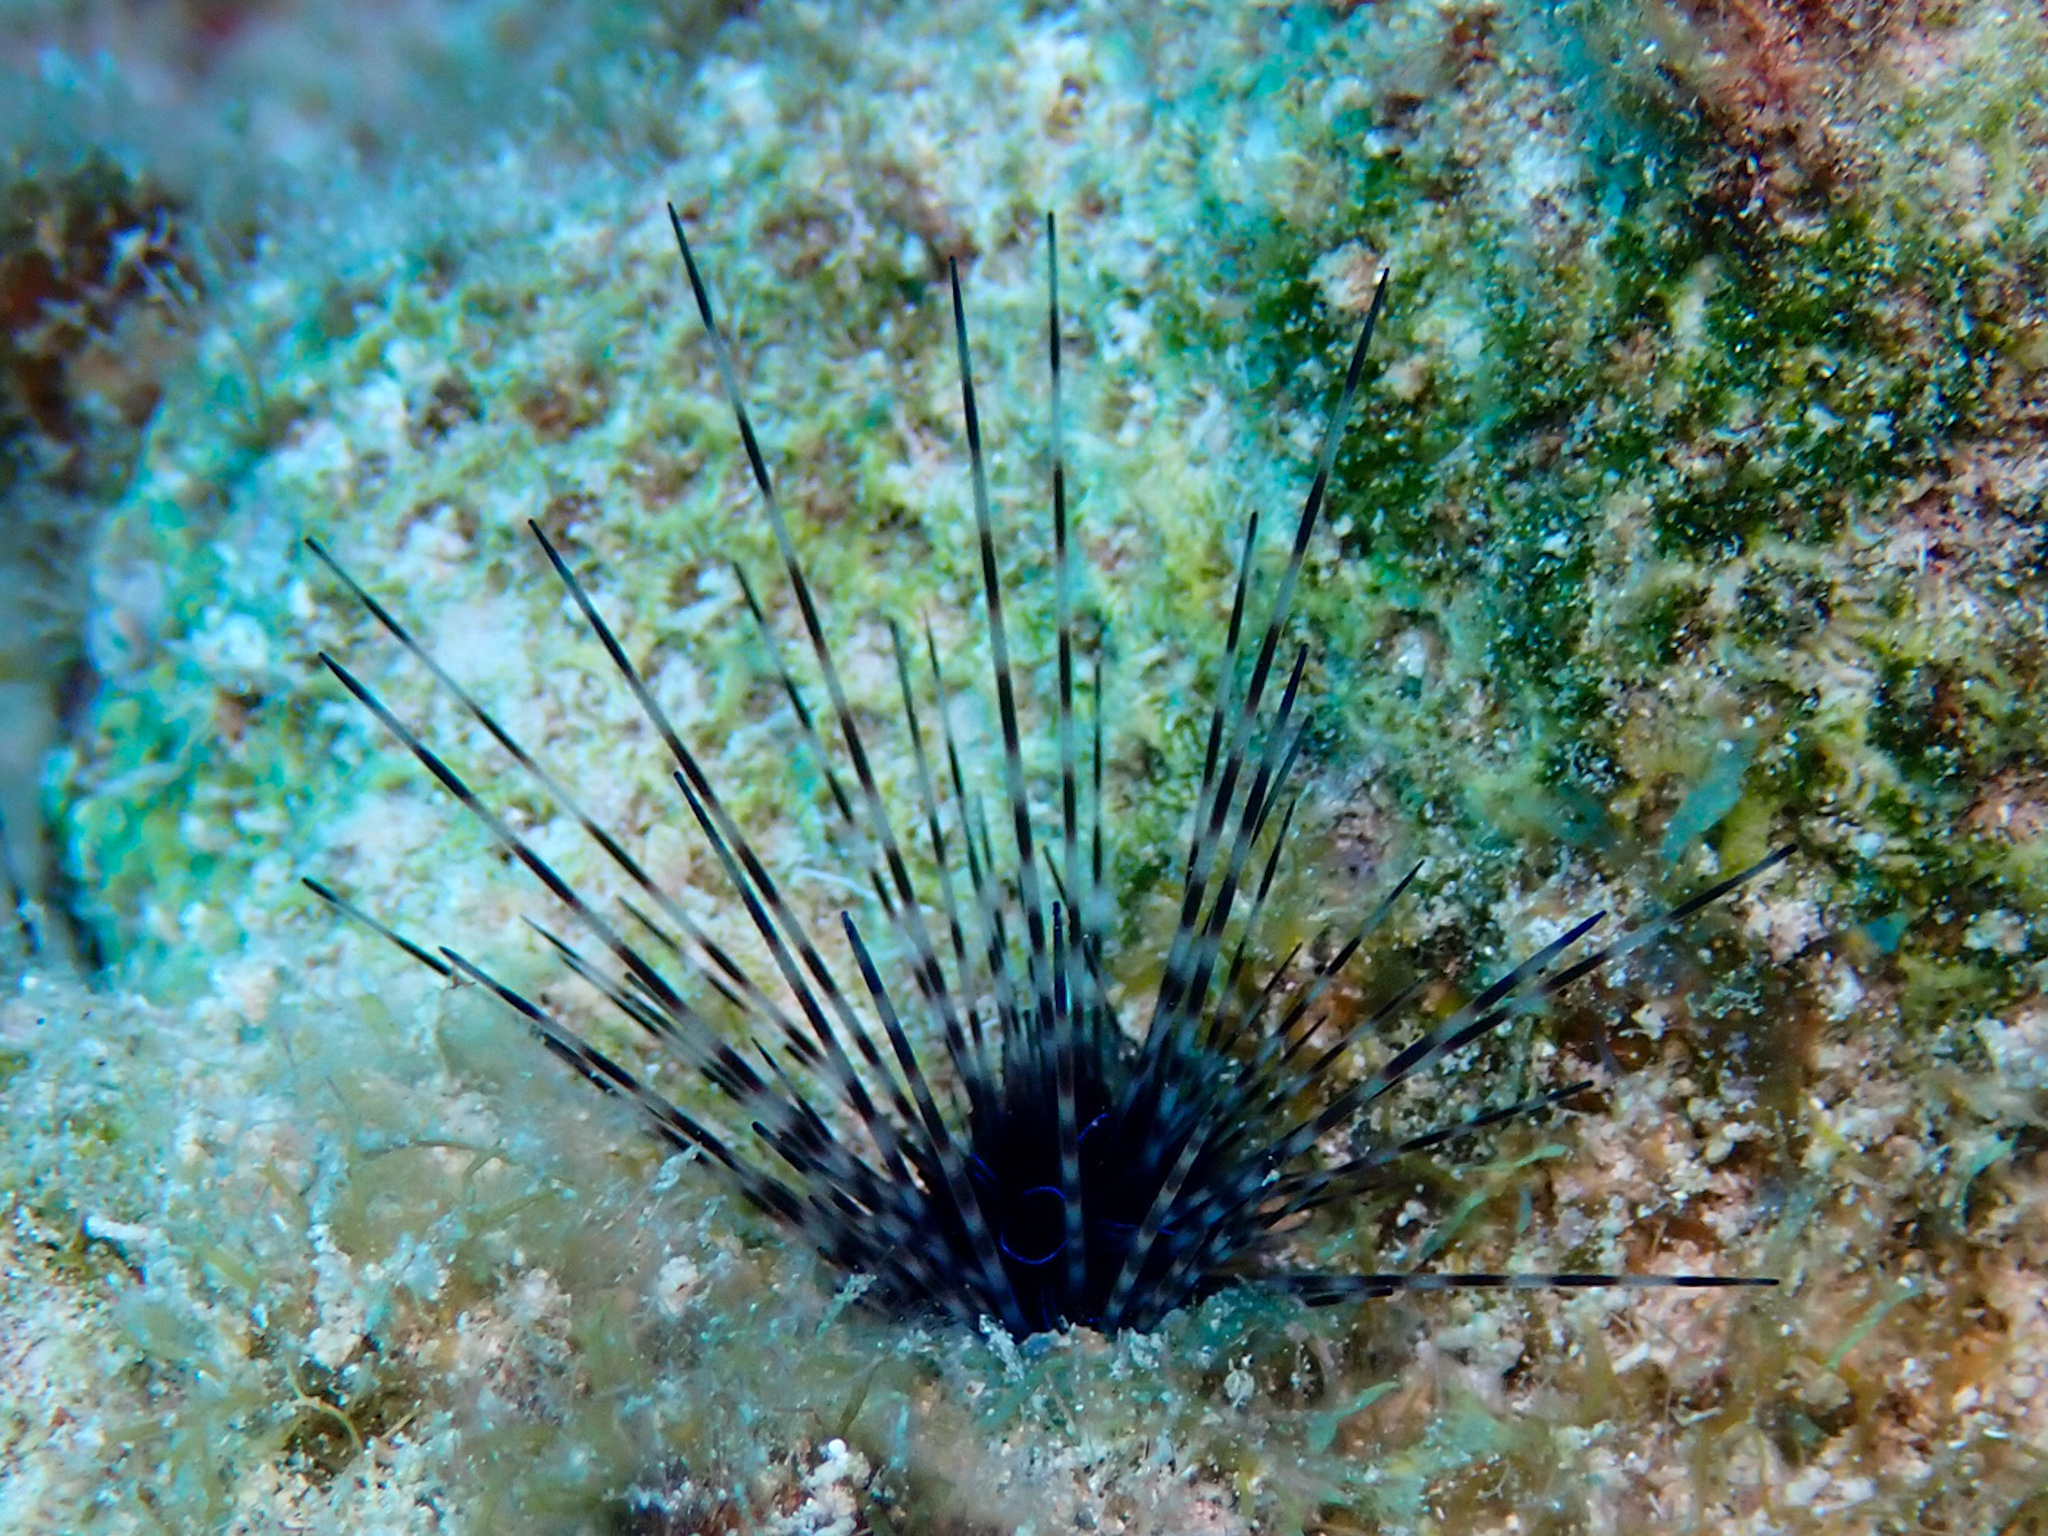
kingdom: Animalia
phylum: Echinodermata
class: Echinoidea
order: Diadematoida
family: Diadematidae
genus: Diadema
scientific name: Diadema antillarum
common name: Spiny urchin
